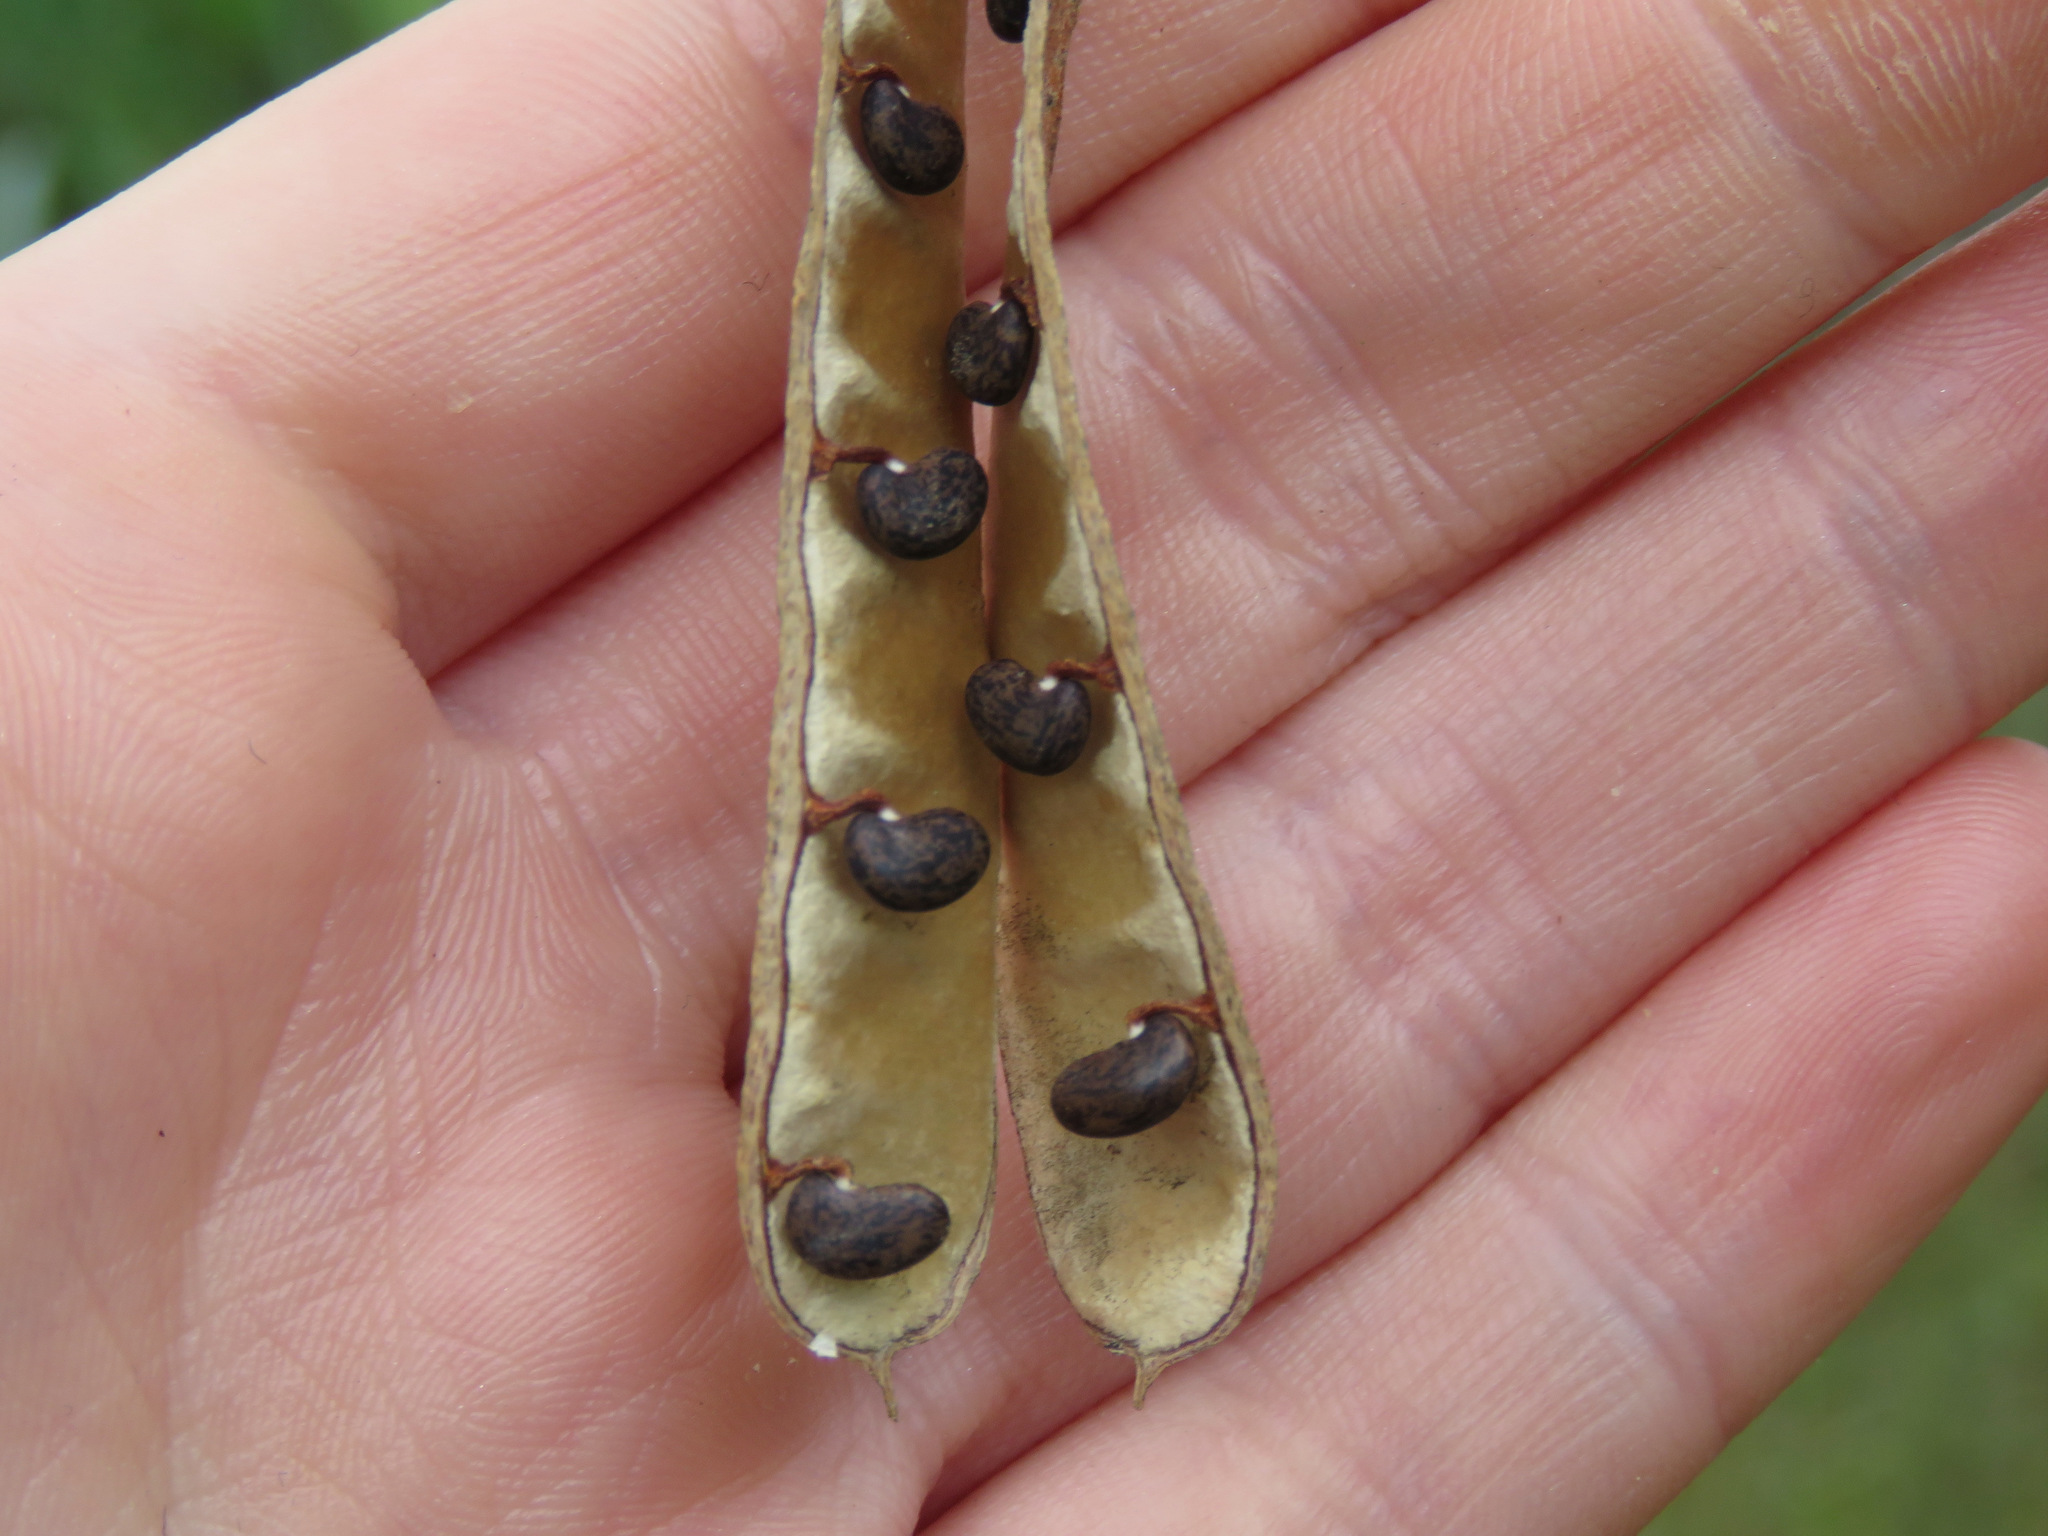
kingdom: Plantae
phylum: Tracheophyta
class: Magnoliopsida
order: Fabales
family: Fabaceae
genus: Robinia
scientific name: Robinia pseudoacacia
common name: Black locust
